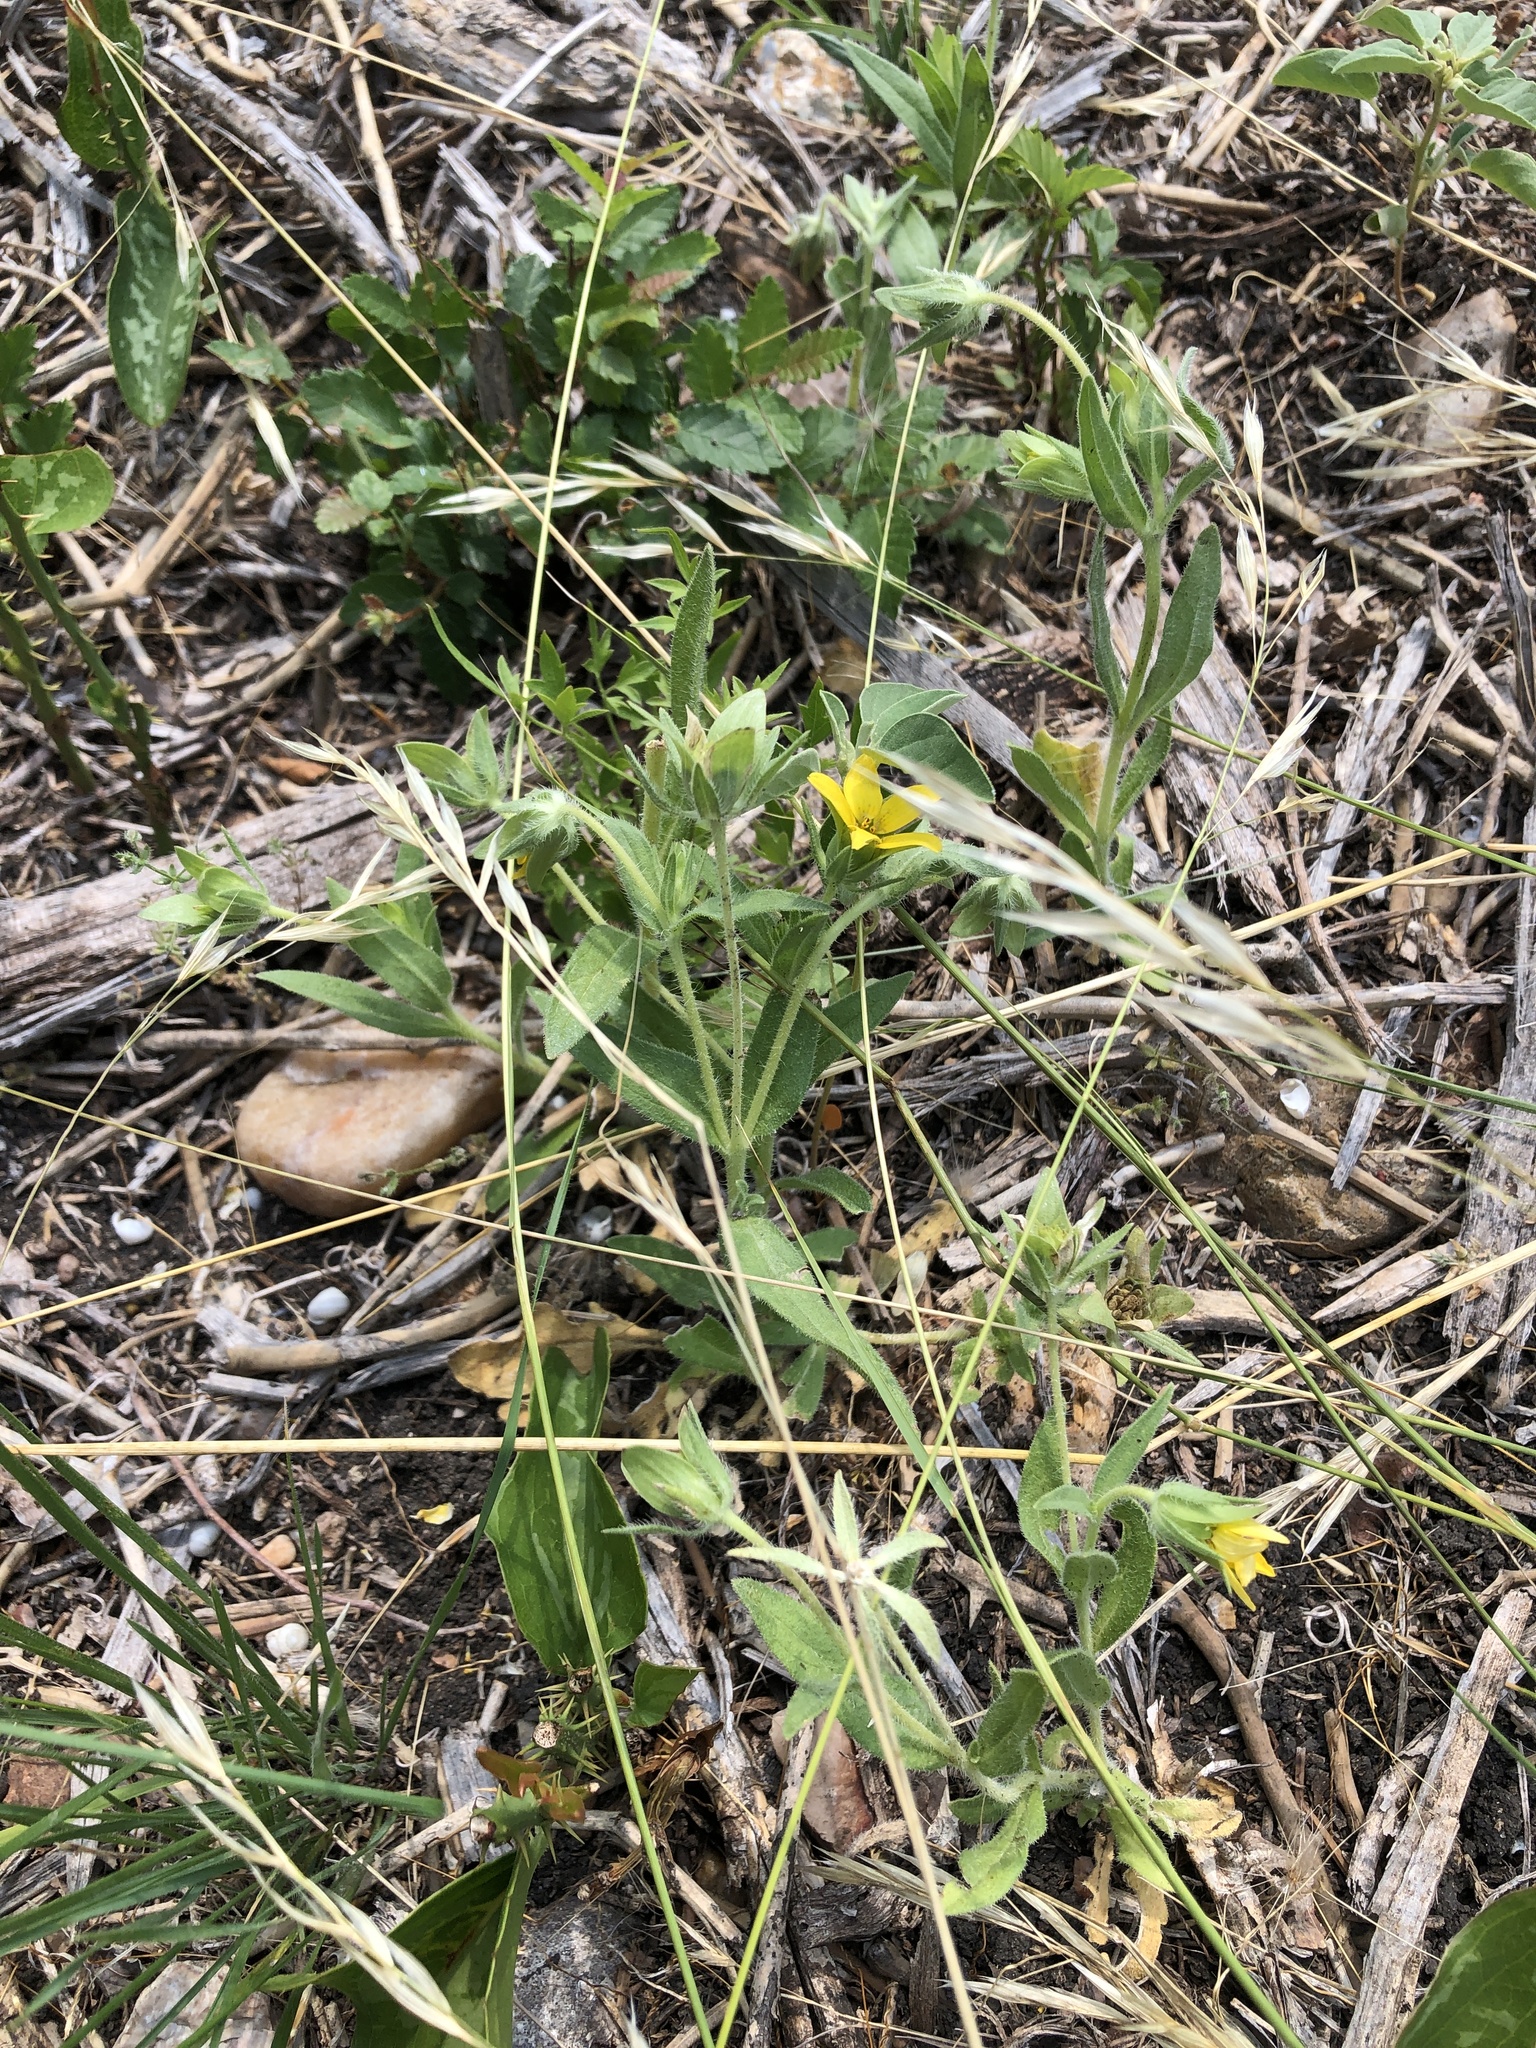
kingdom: Plantae
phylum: Tracheophyta
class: Magnoliopsida
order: Asterales
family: Asteraceae
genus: Lindheimera
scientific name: Lindheimera texana
